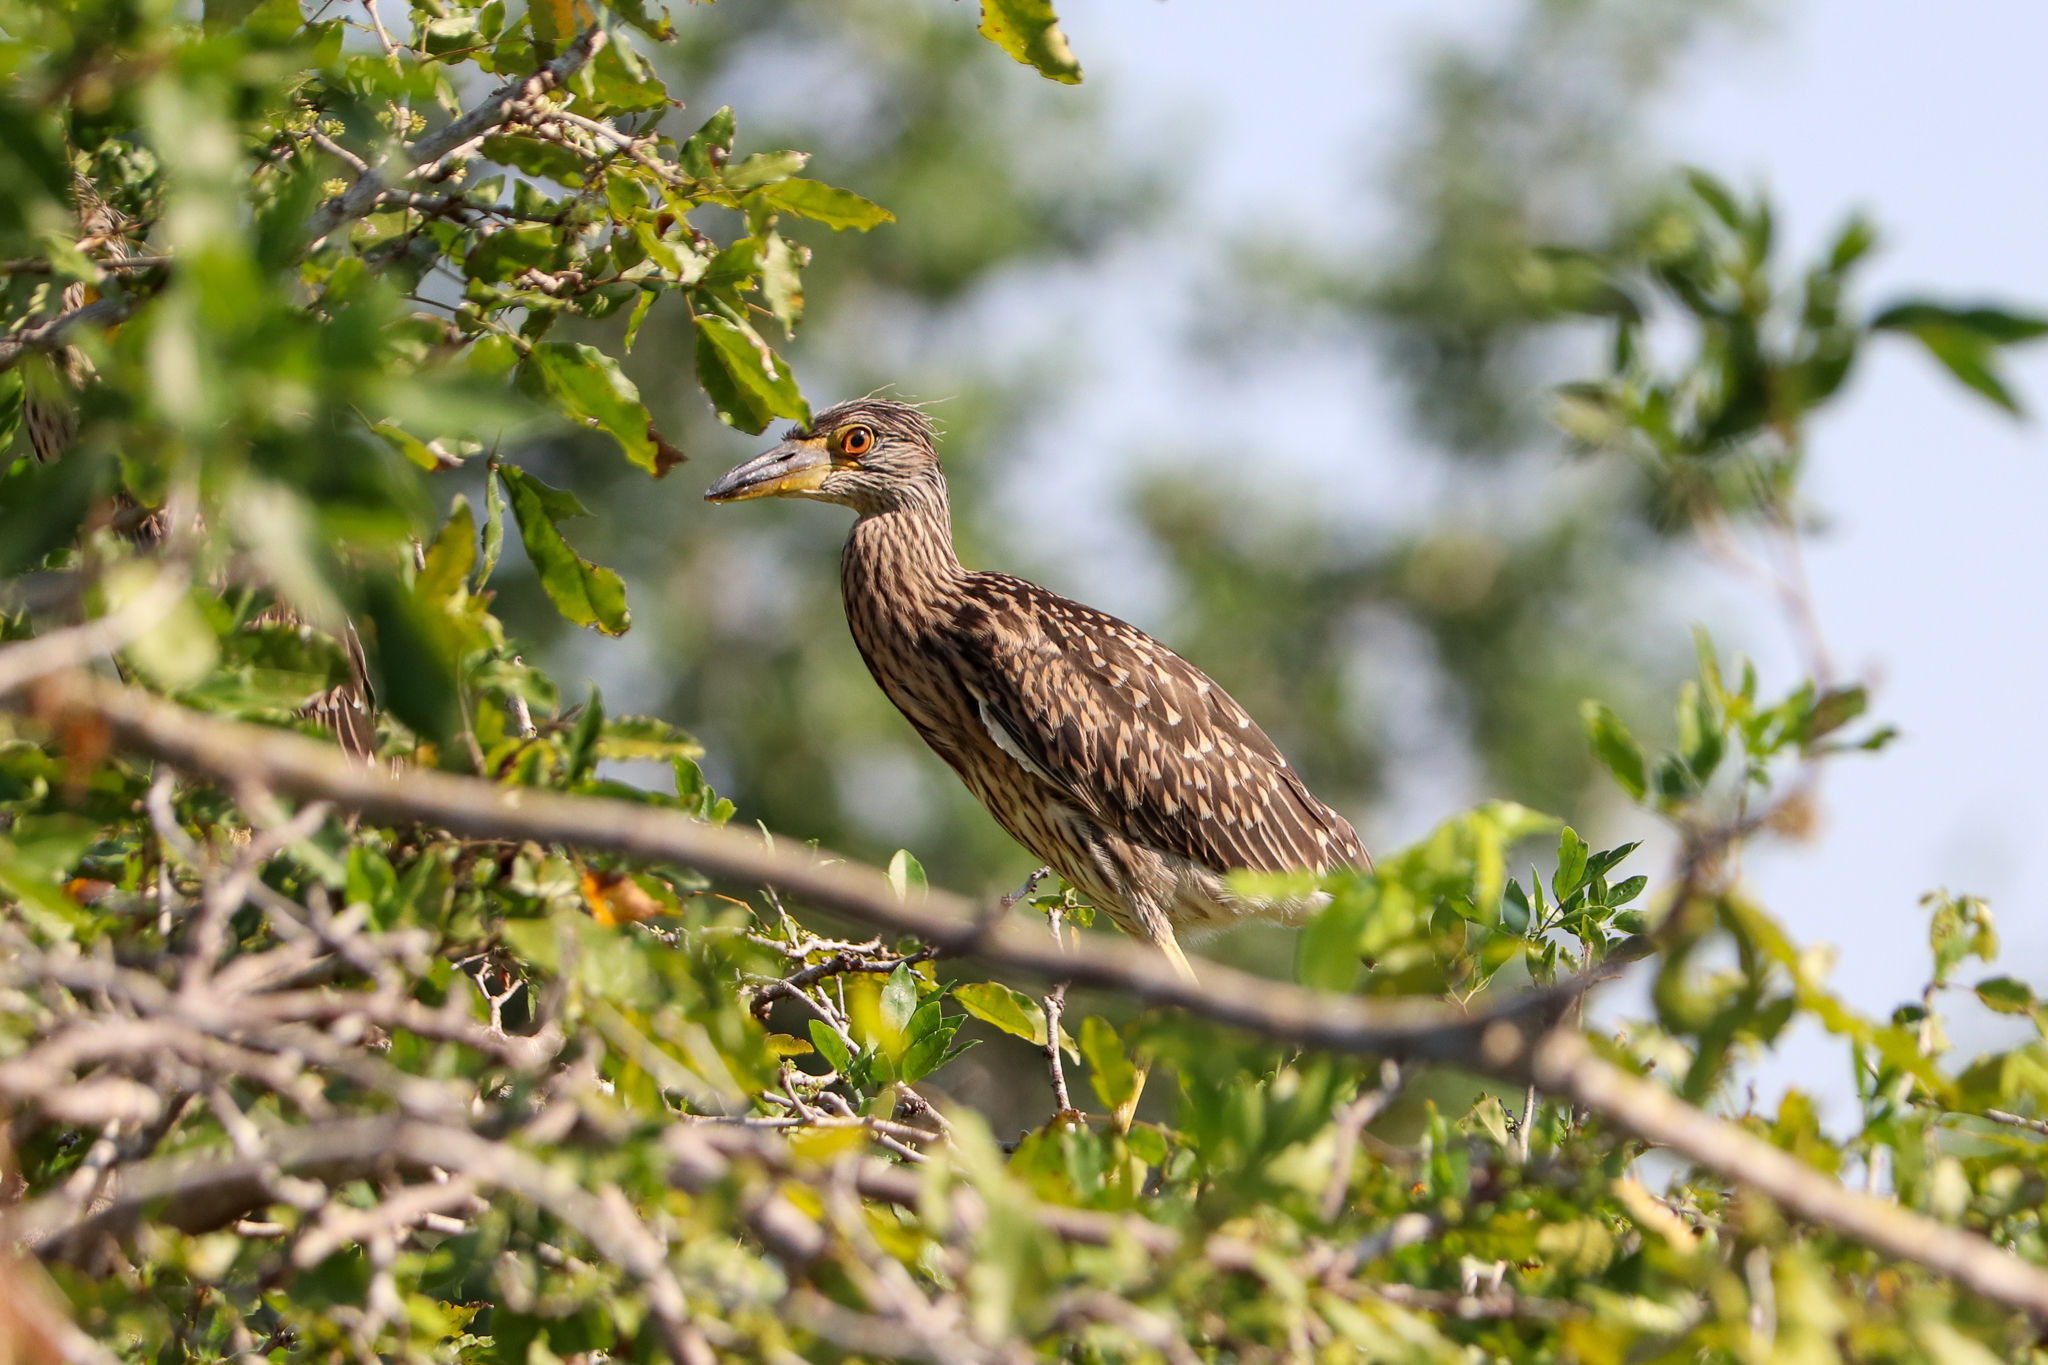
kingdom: Animalia
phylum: Chordata
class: Aves
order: Pelecaniformes
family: Ardeidae
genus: Nycticorax
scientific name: Nycticorax nycticorax
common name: Black-crowned night heron
